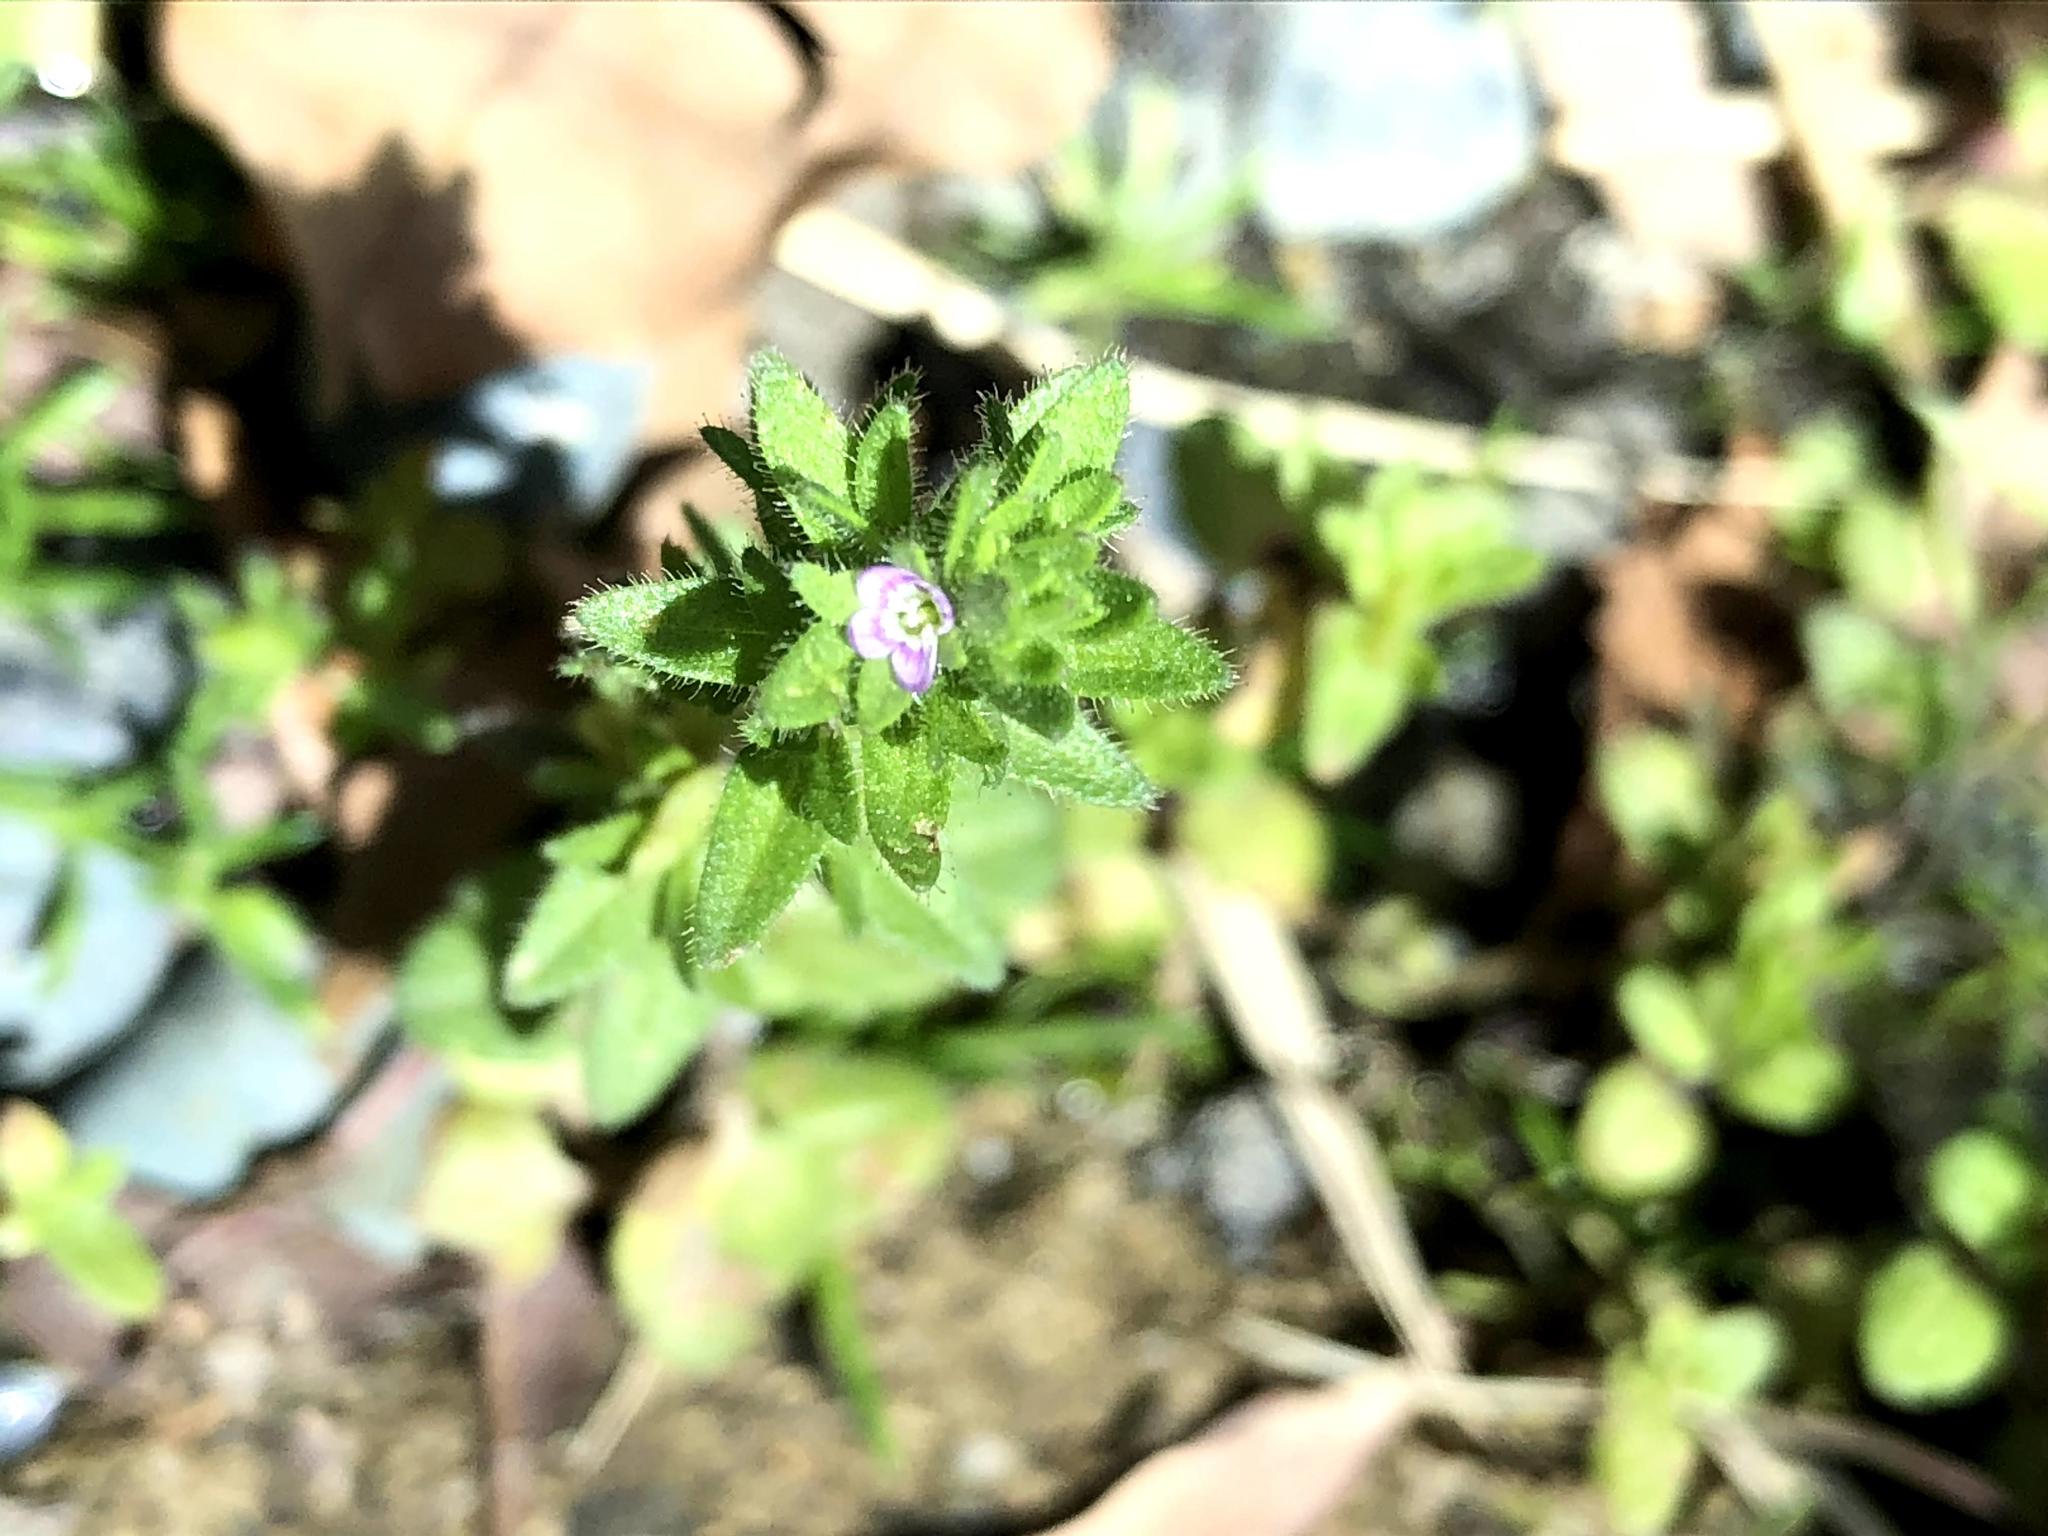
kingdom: Plantae
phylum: Tracheophyta
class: Magnoliopsida
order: Lamiales
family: Plantaginaceae
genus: Veronica
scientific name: Veronica arvensis
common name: Corn speedwell
